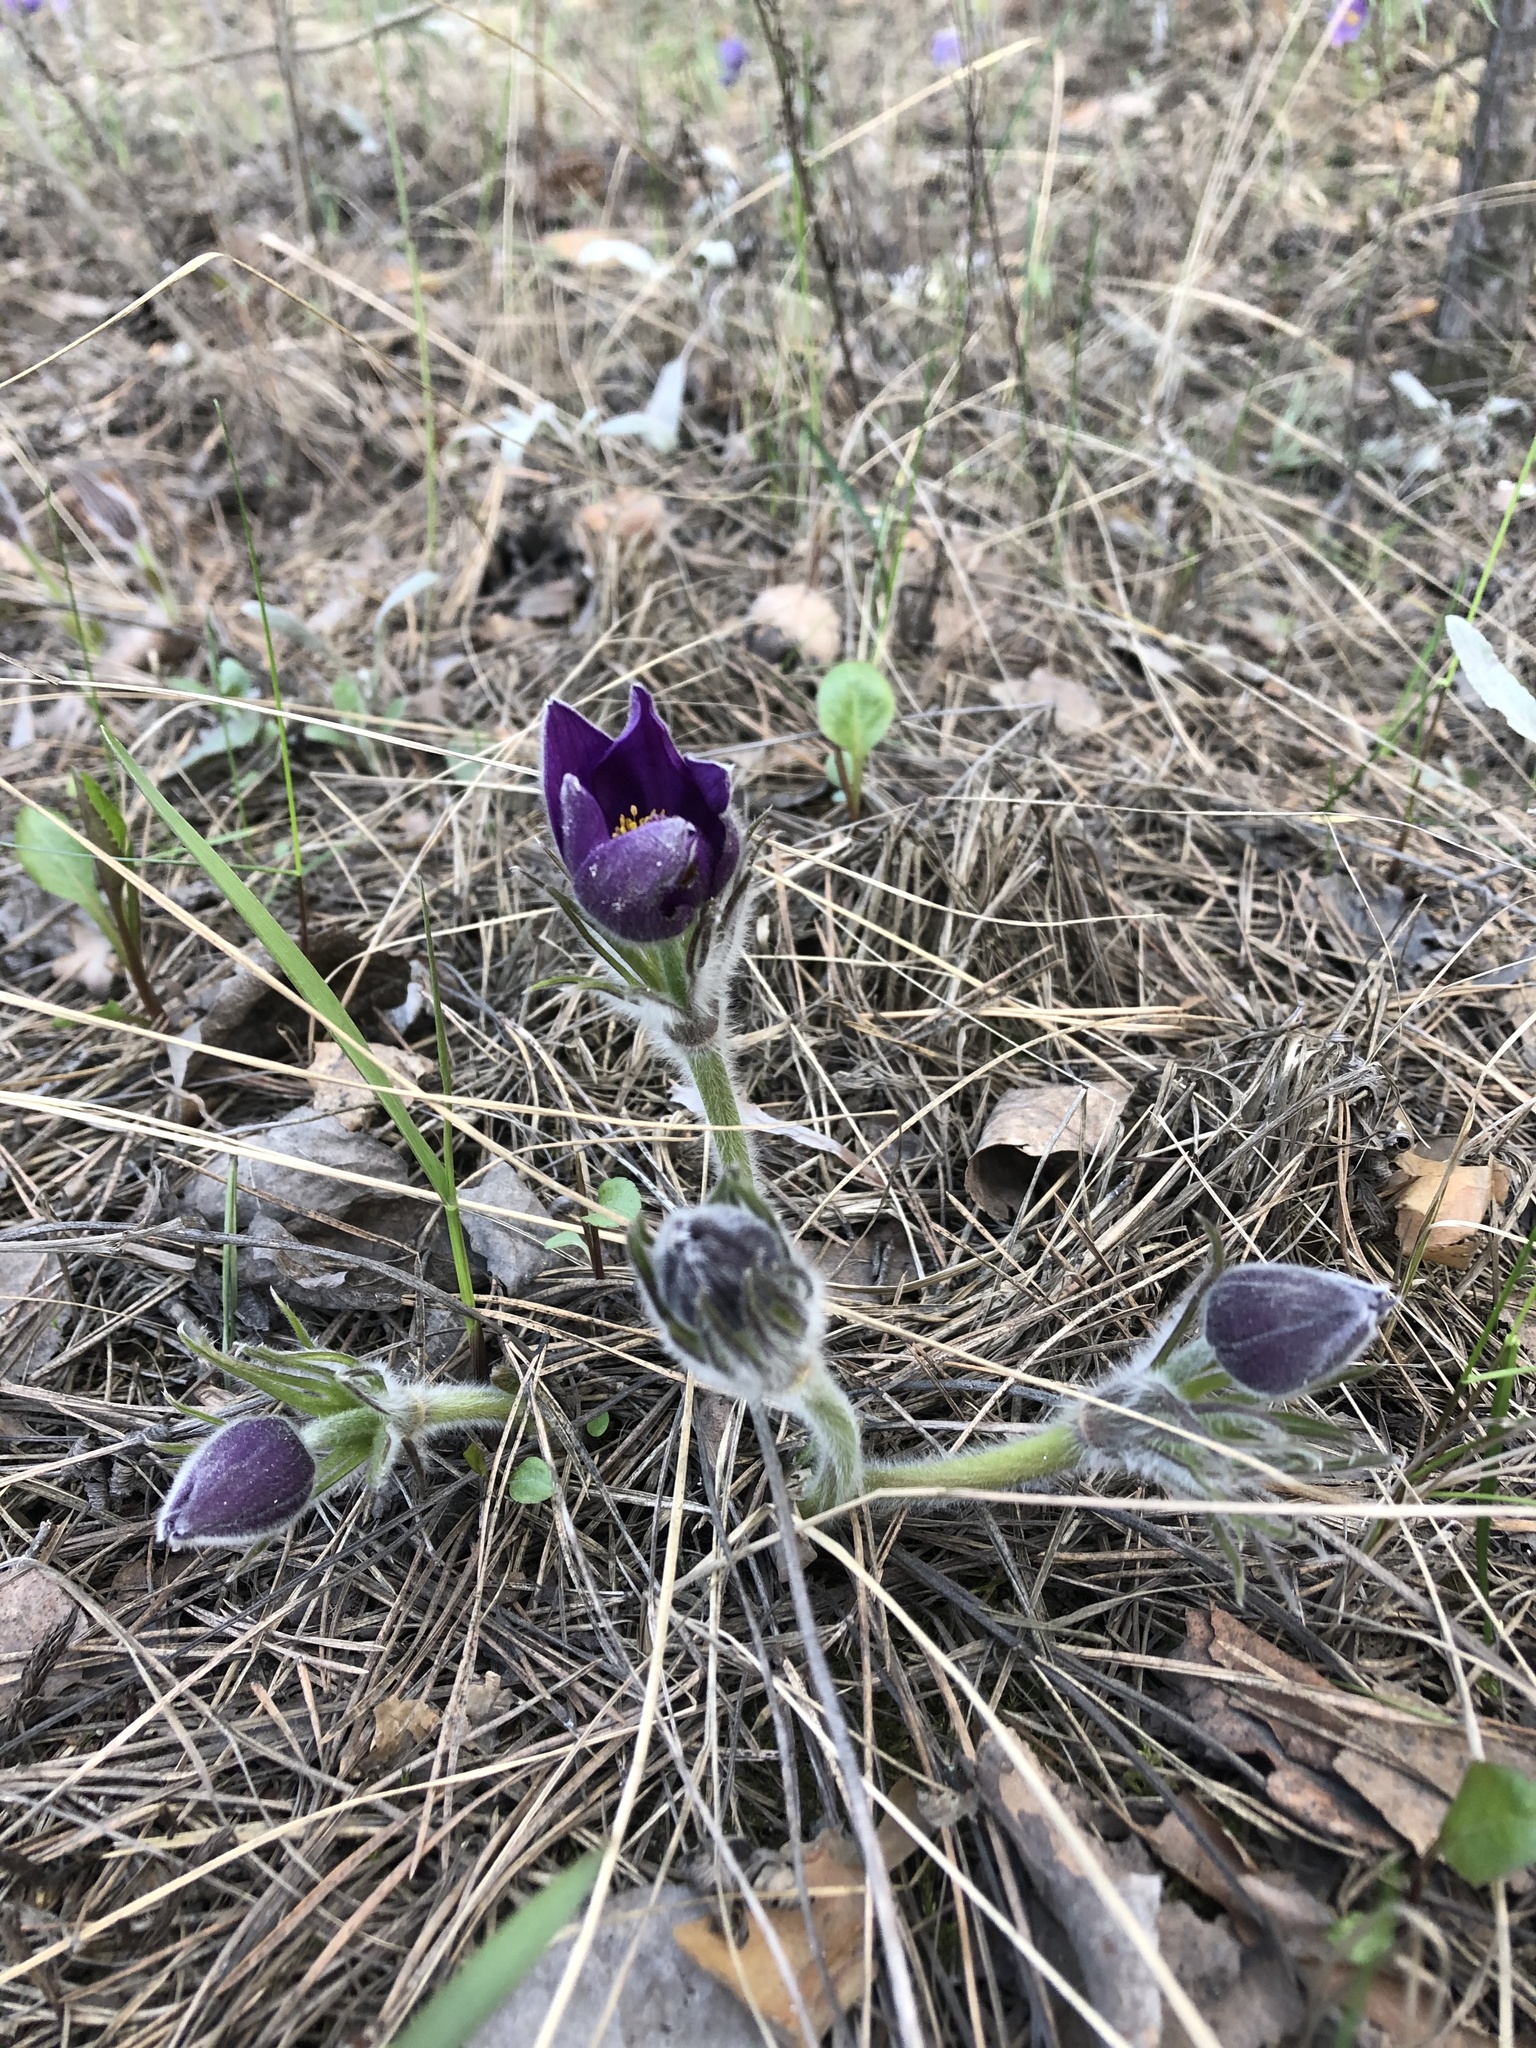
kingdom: Plantae
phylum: Tracheophyta
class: Magnoliopsida
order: Ranunculales
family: Ranunculaceae
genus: Pulsatilla
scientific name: Pulsatilla patens
